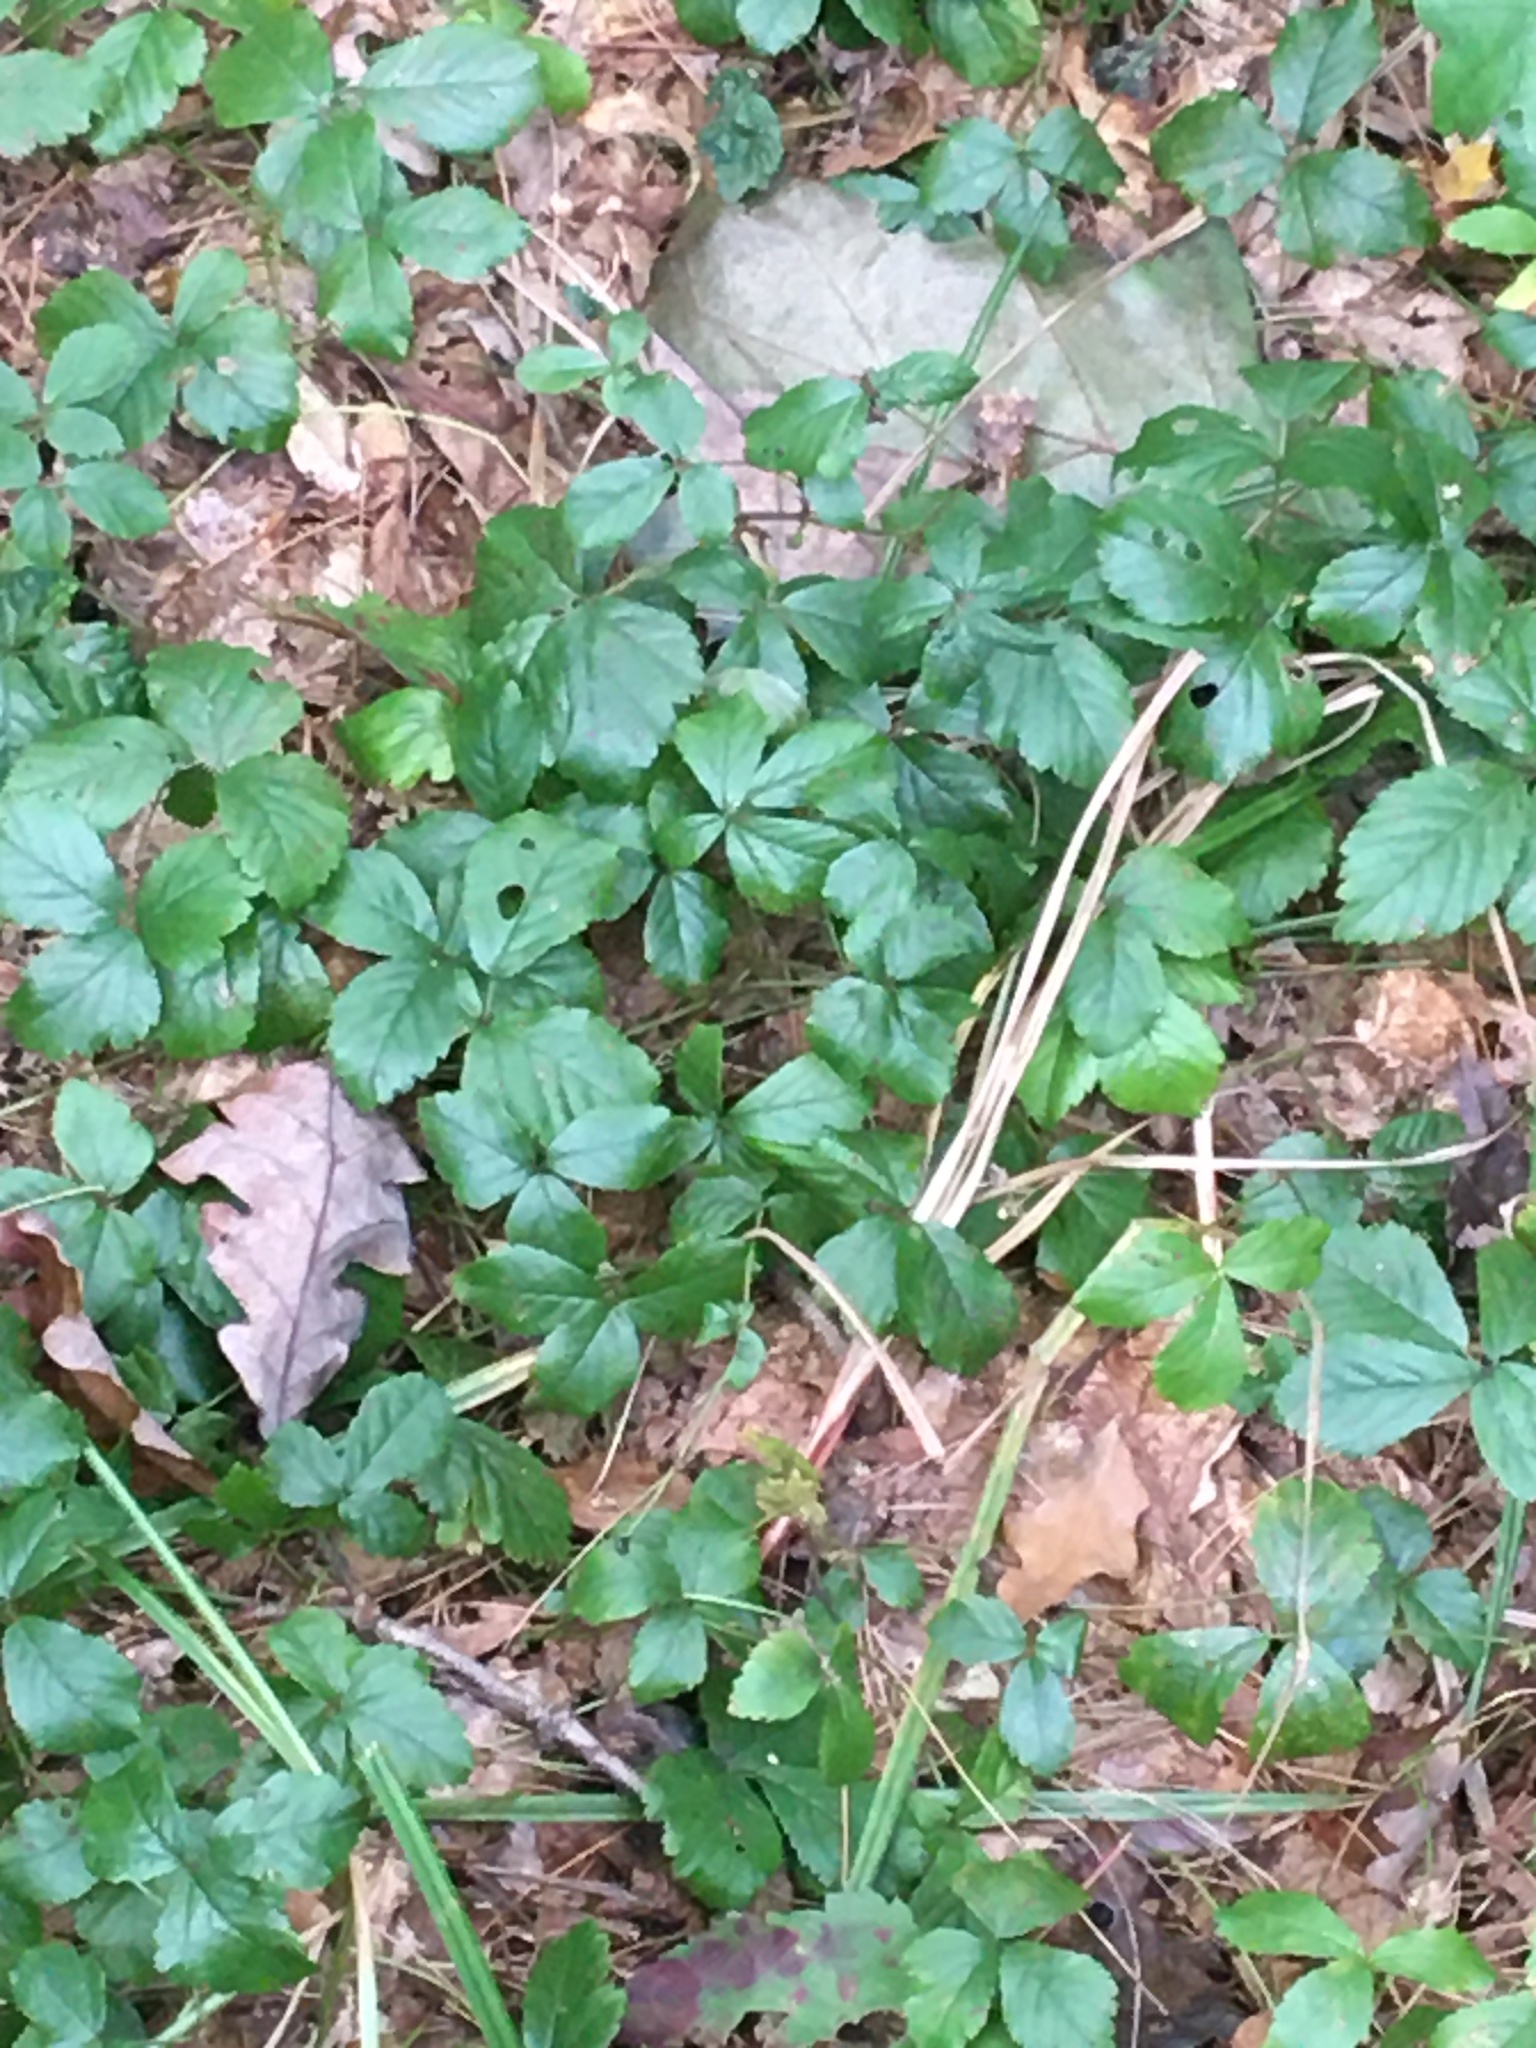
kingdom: Plantae
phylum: Tracheophyta
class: Magnoliopsida
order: Rosales
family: Rosaceae
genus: Rubus
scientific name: Rubus hispidus
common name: Running blackberry
